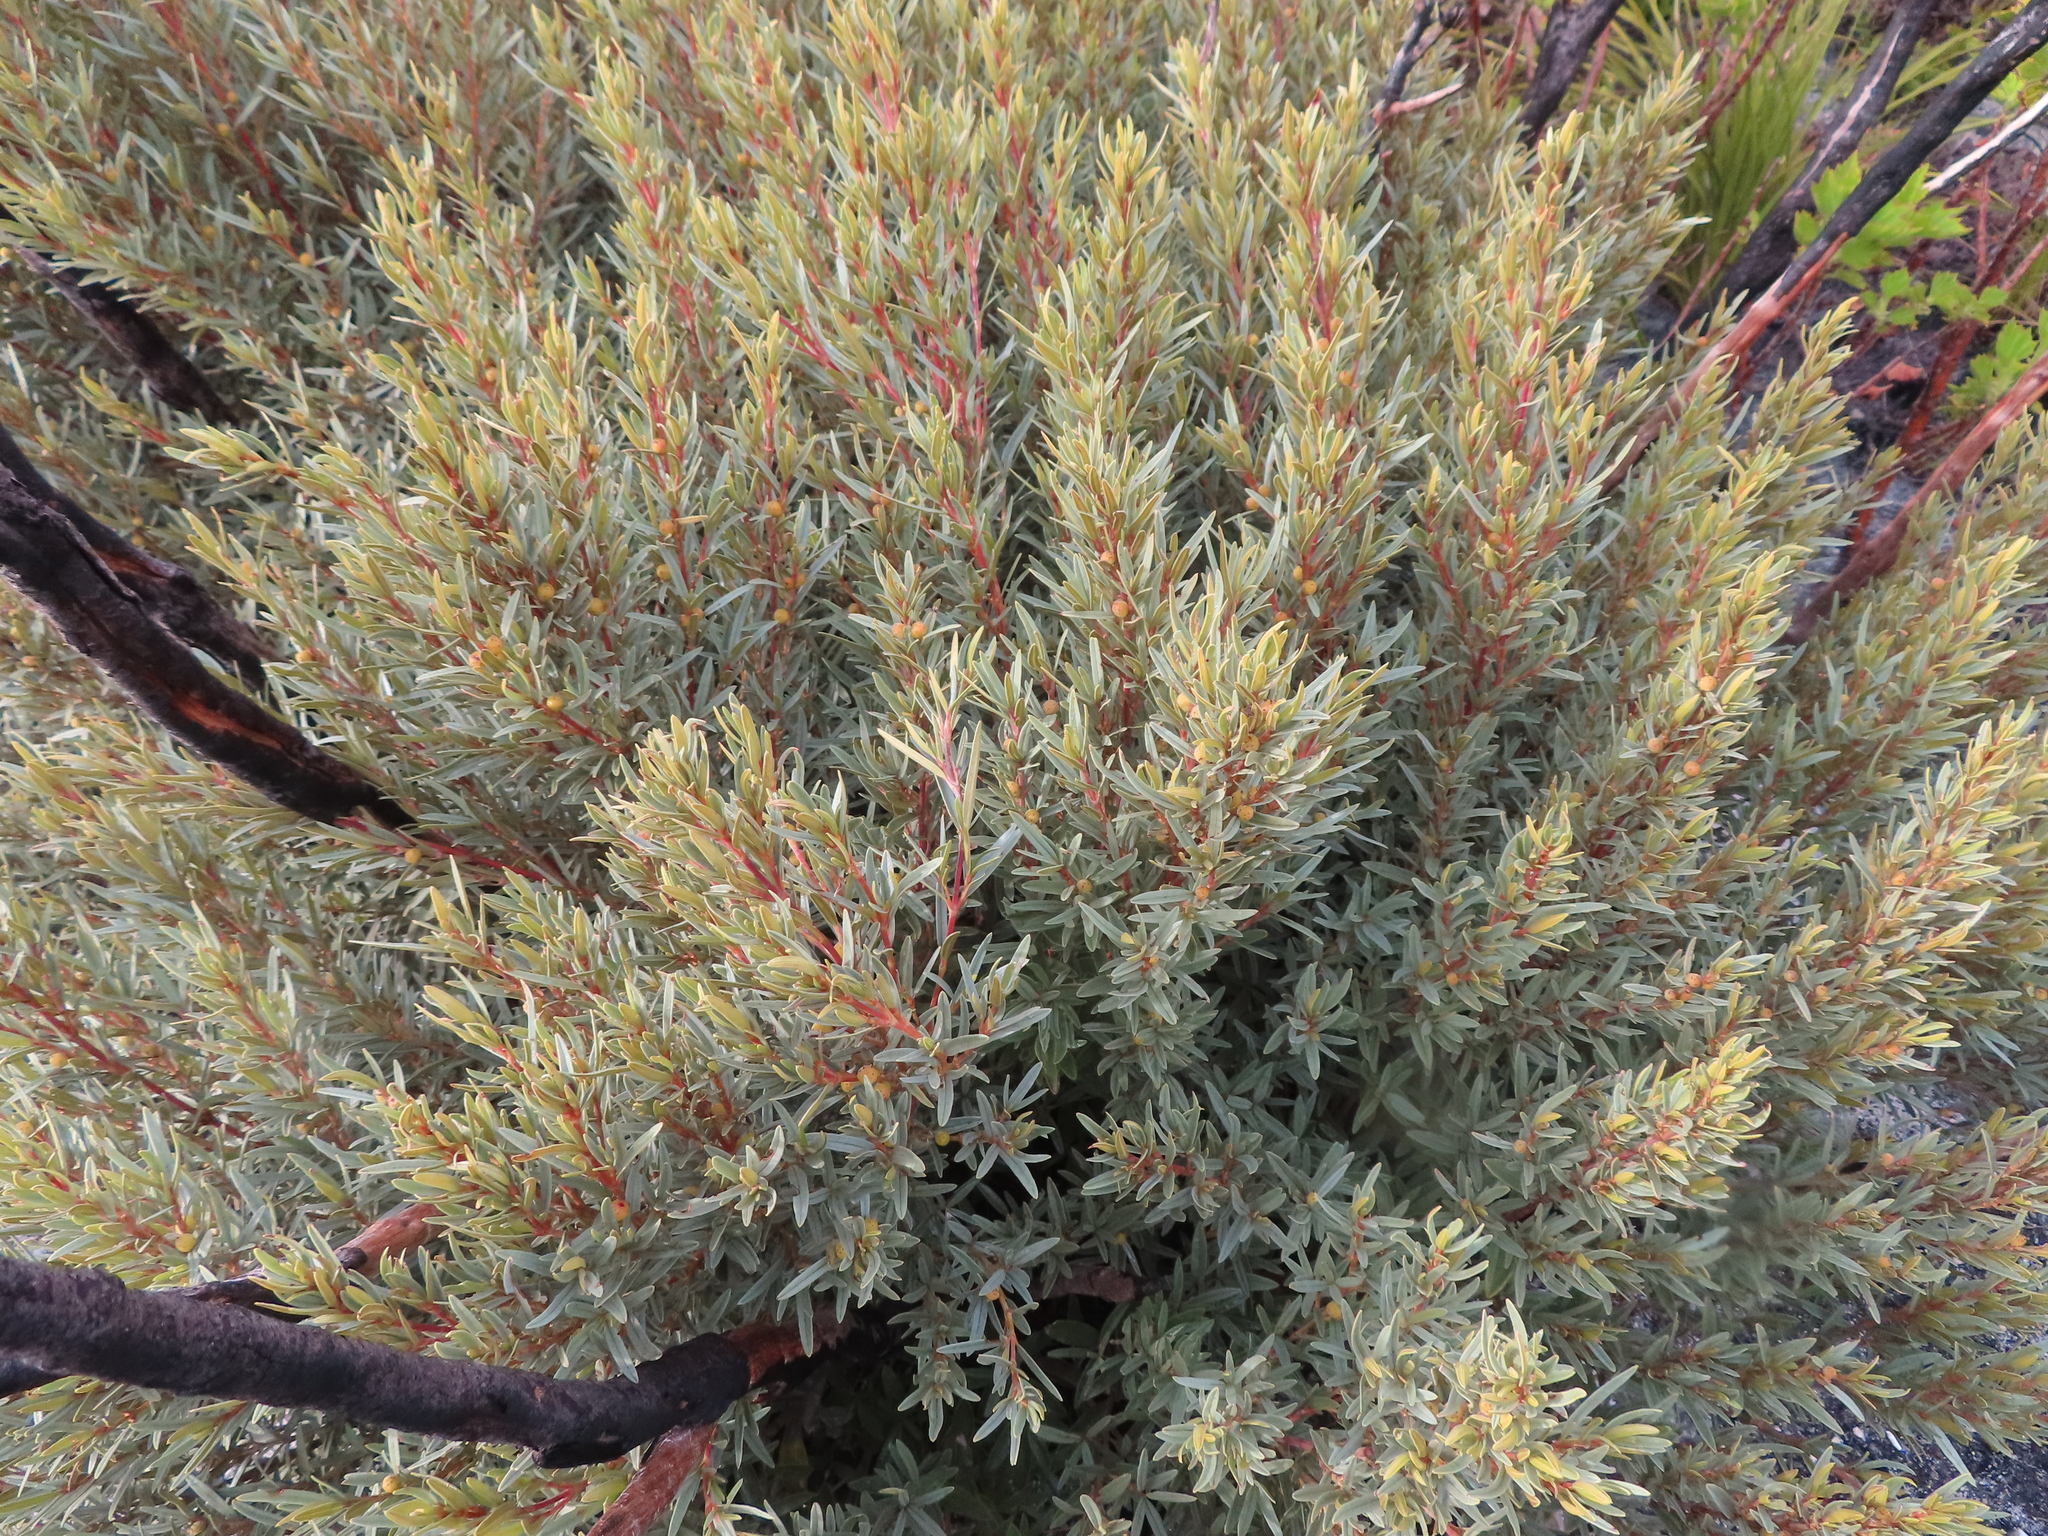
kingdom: Plantae
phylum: Tracheophyta
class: Magnoliopsida
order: Cornales
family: Grubbiaceae
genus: Grubbia
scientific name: Grubbia tomentosa
